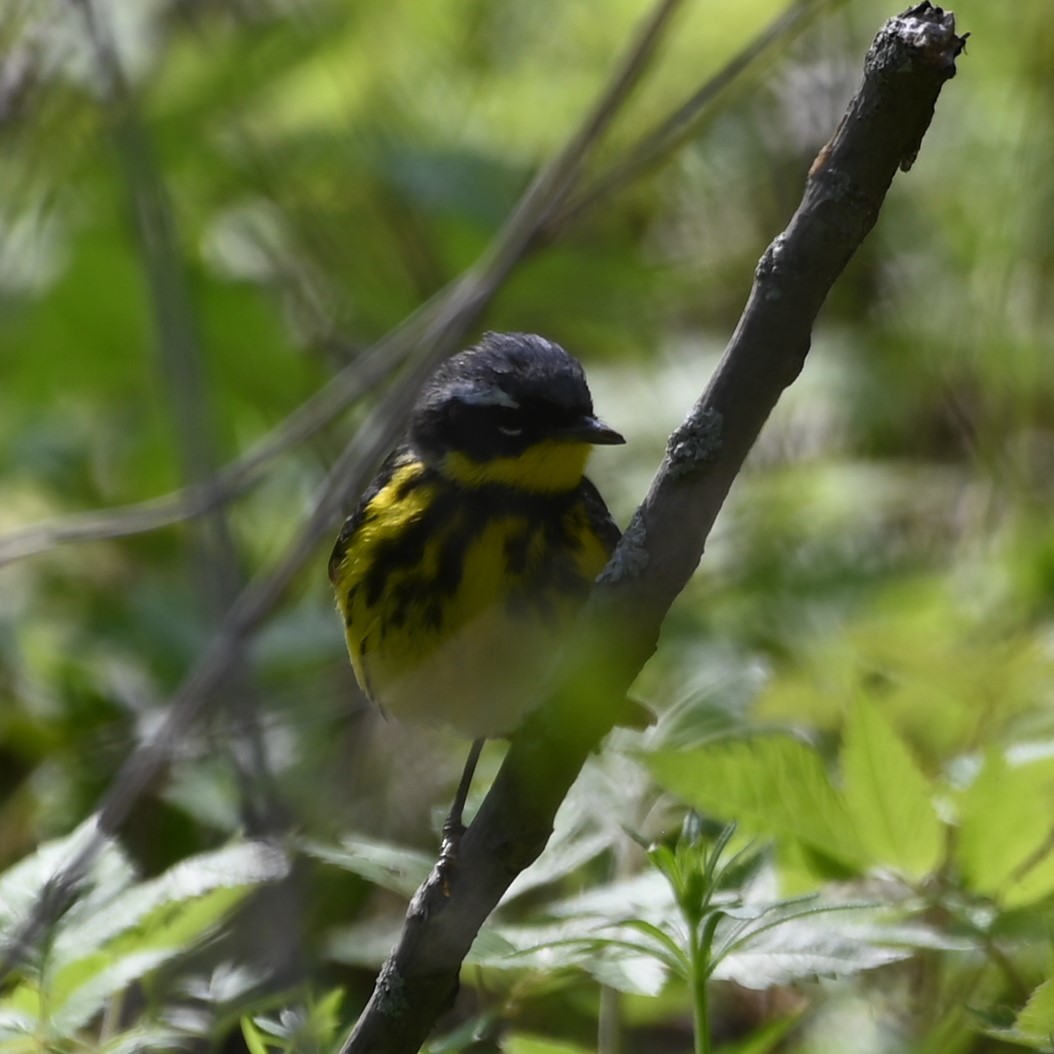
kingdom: Animalia
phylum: Chordata
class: Aves
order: Passeriformes
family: Parulidae
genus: Setophaga
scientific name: Setophaga magnolia
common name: Magnolia warbler
